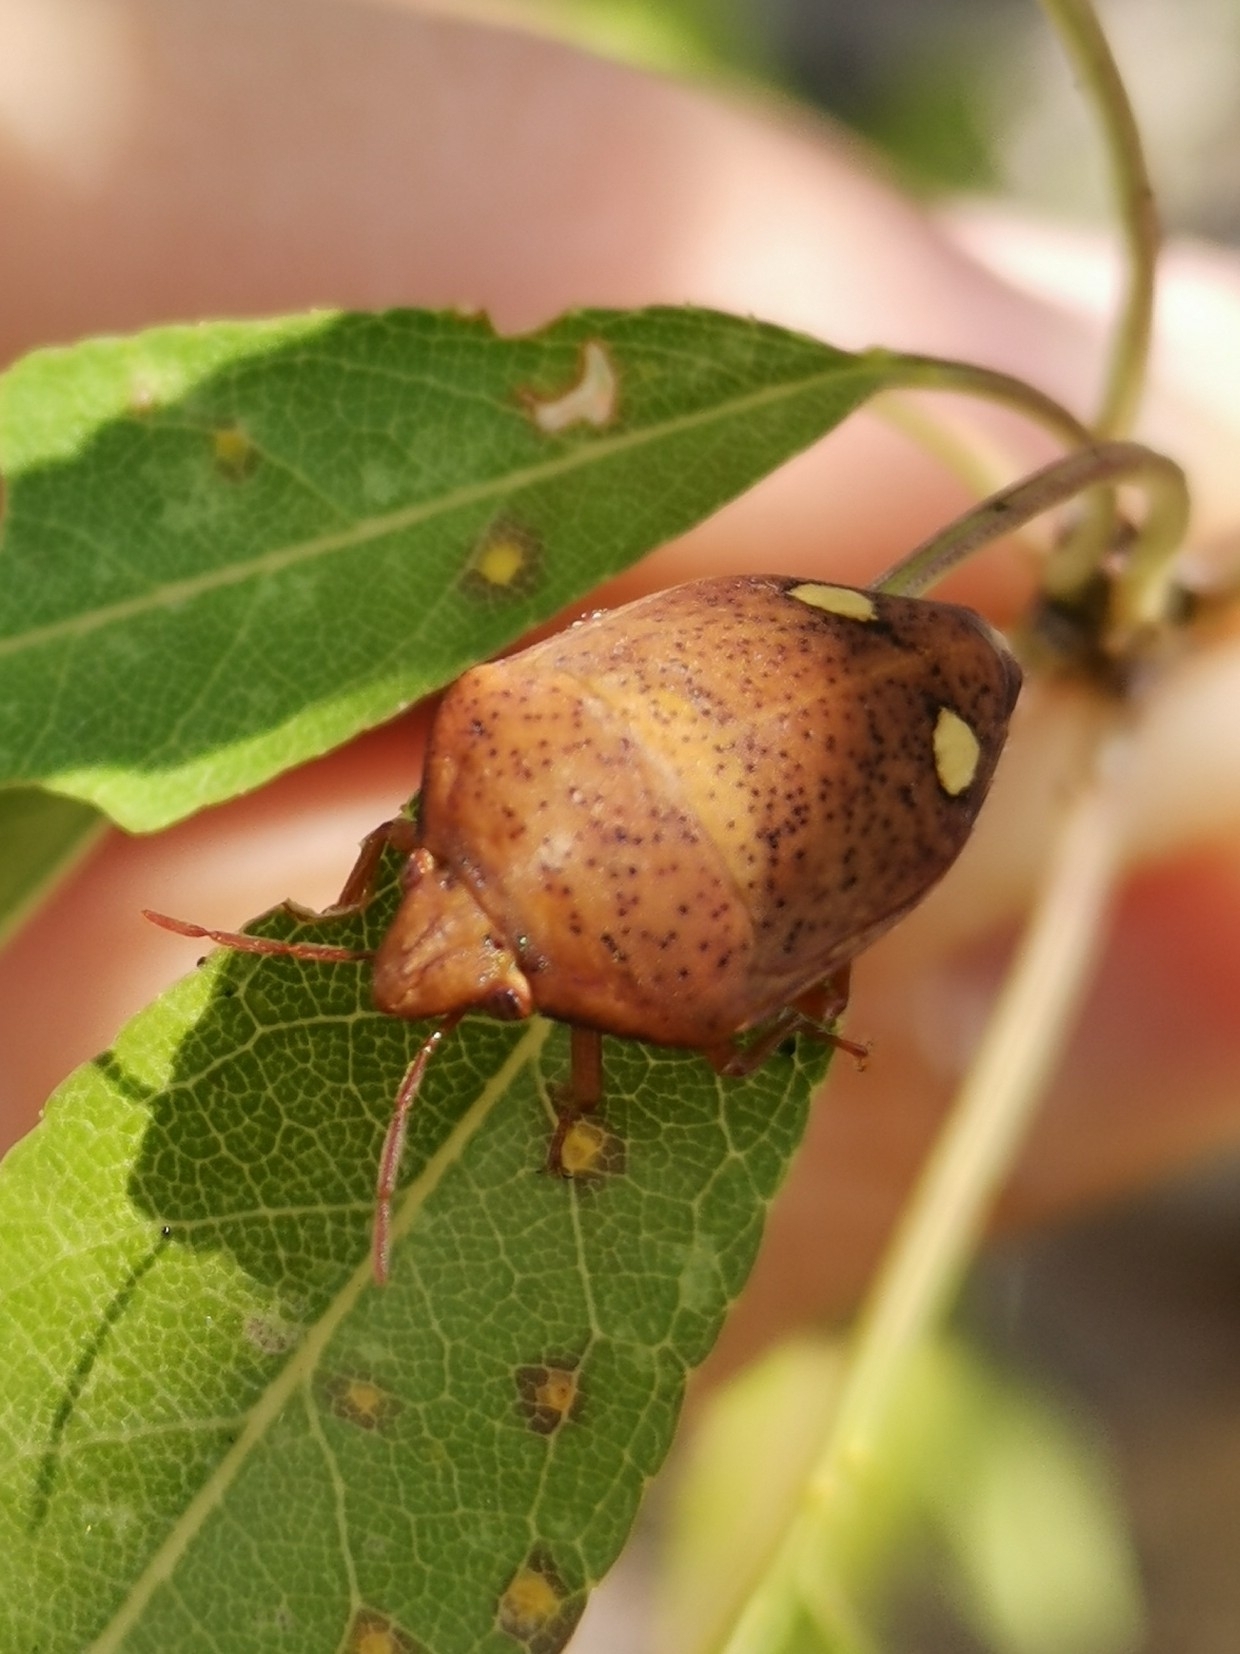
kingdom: Animalia
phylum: Arthropoda
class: Insecta
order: Hemiptera
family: Scutelleridae
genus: Solenosthedium
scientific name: Solenosthedium bilunatum
